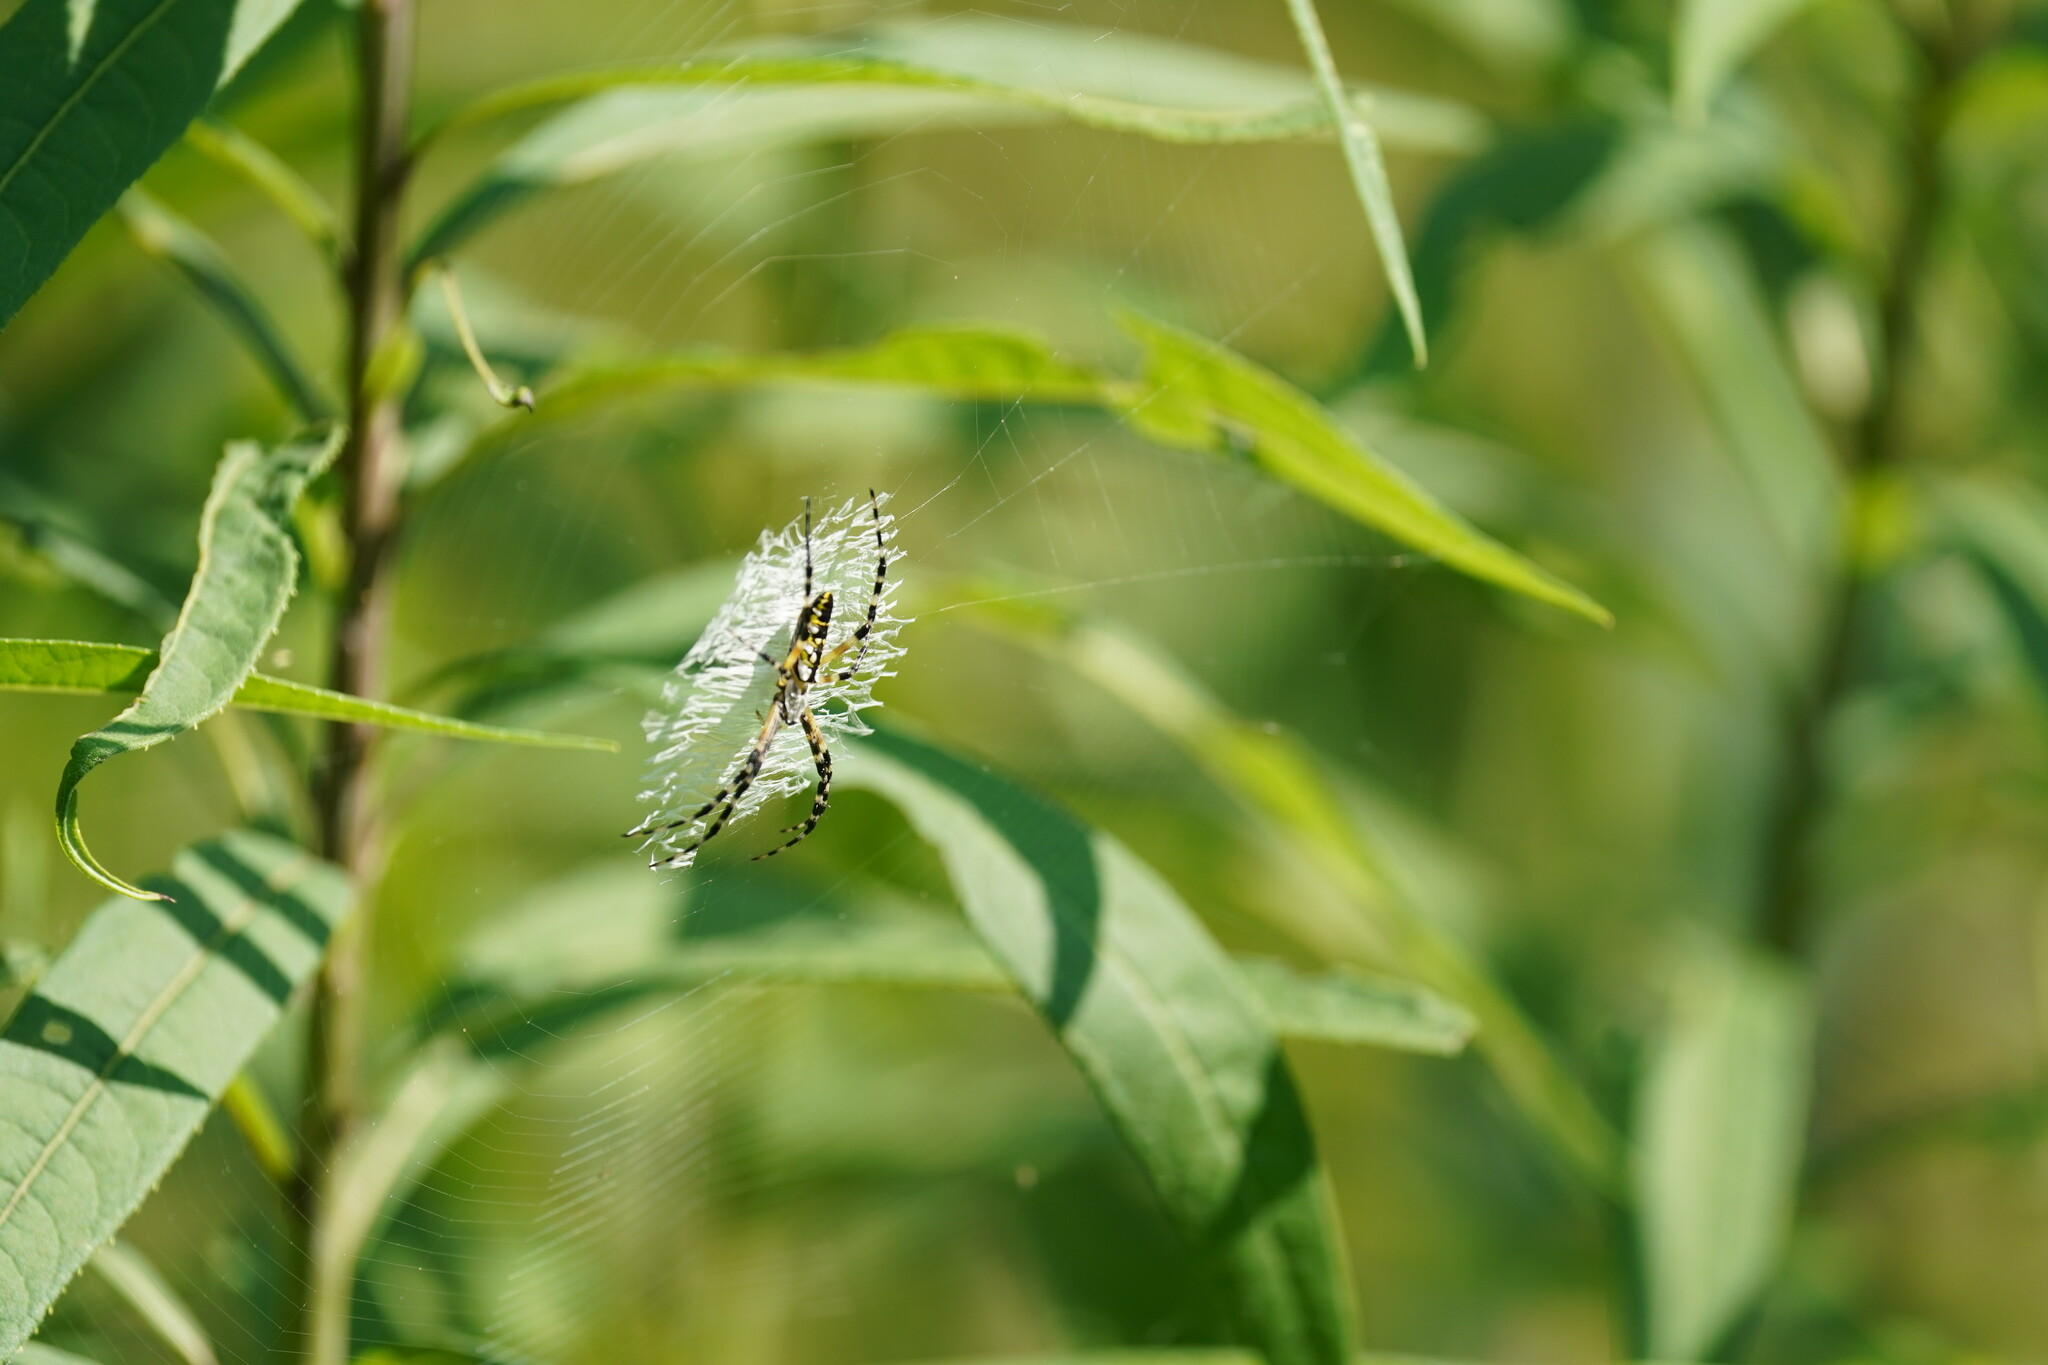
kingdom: Animalia
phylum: Arthropoda
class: Arachnida
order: Araneae
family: Araneidae
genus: Argiope
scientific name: Argiope aurantia
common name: Orb weavers
